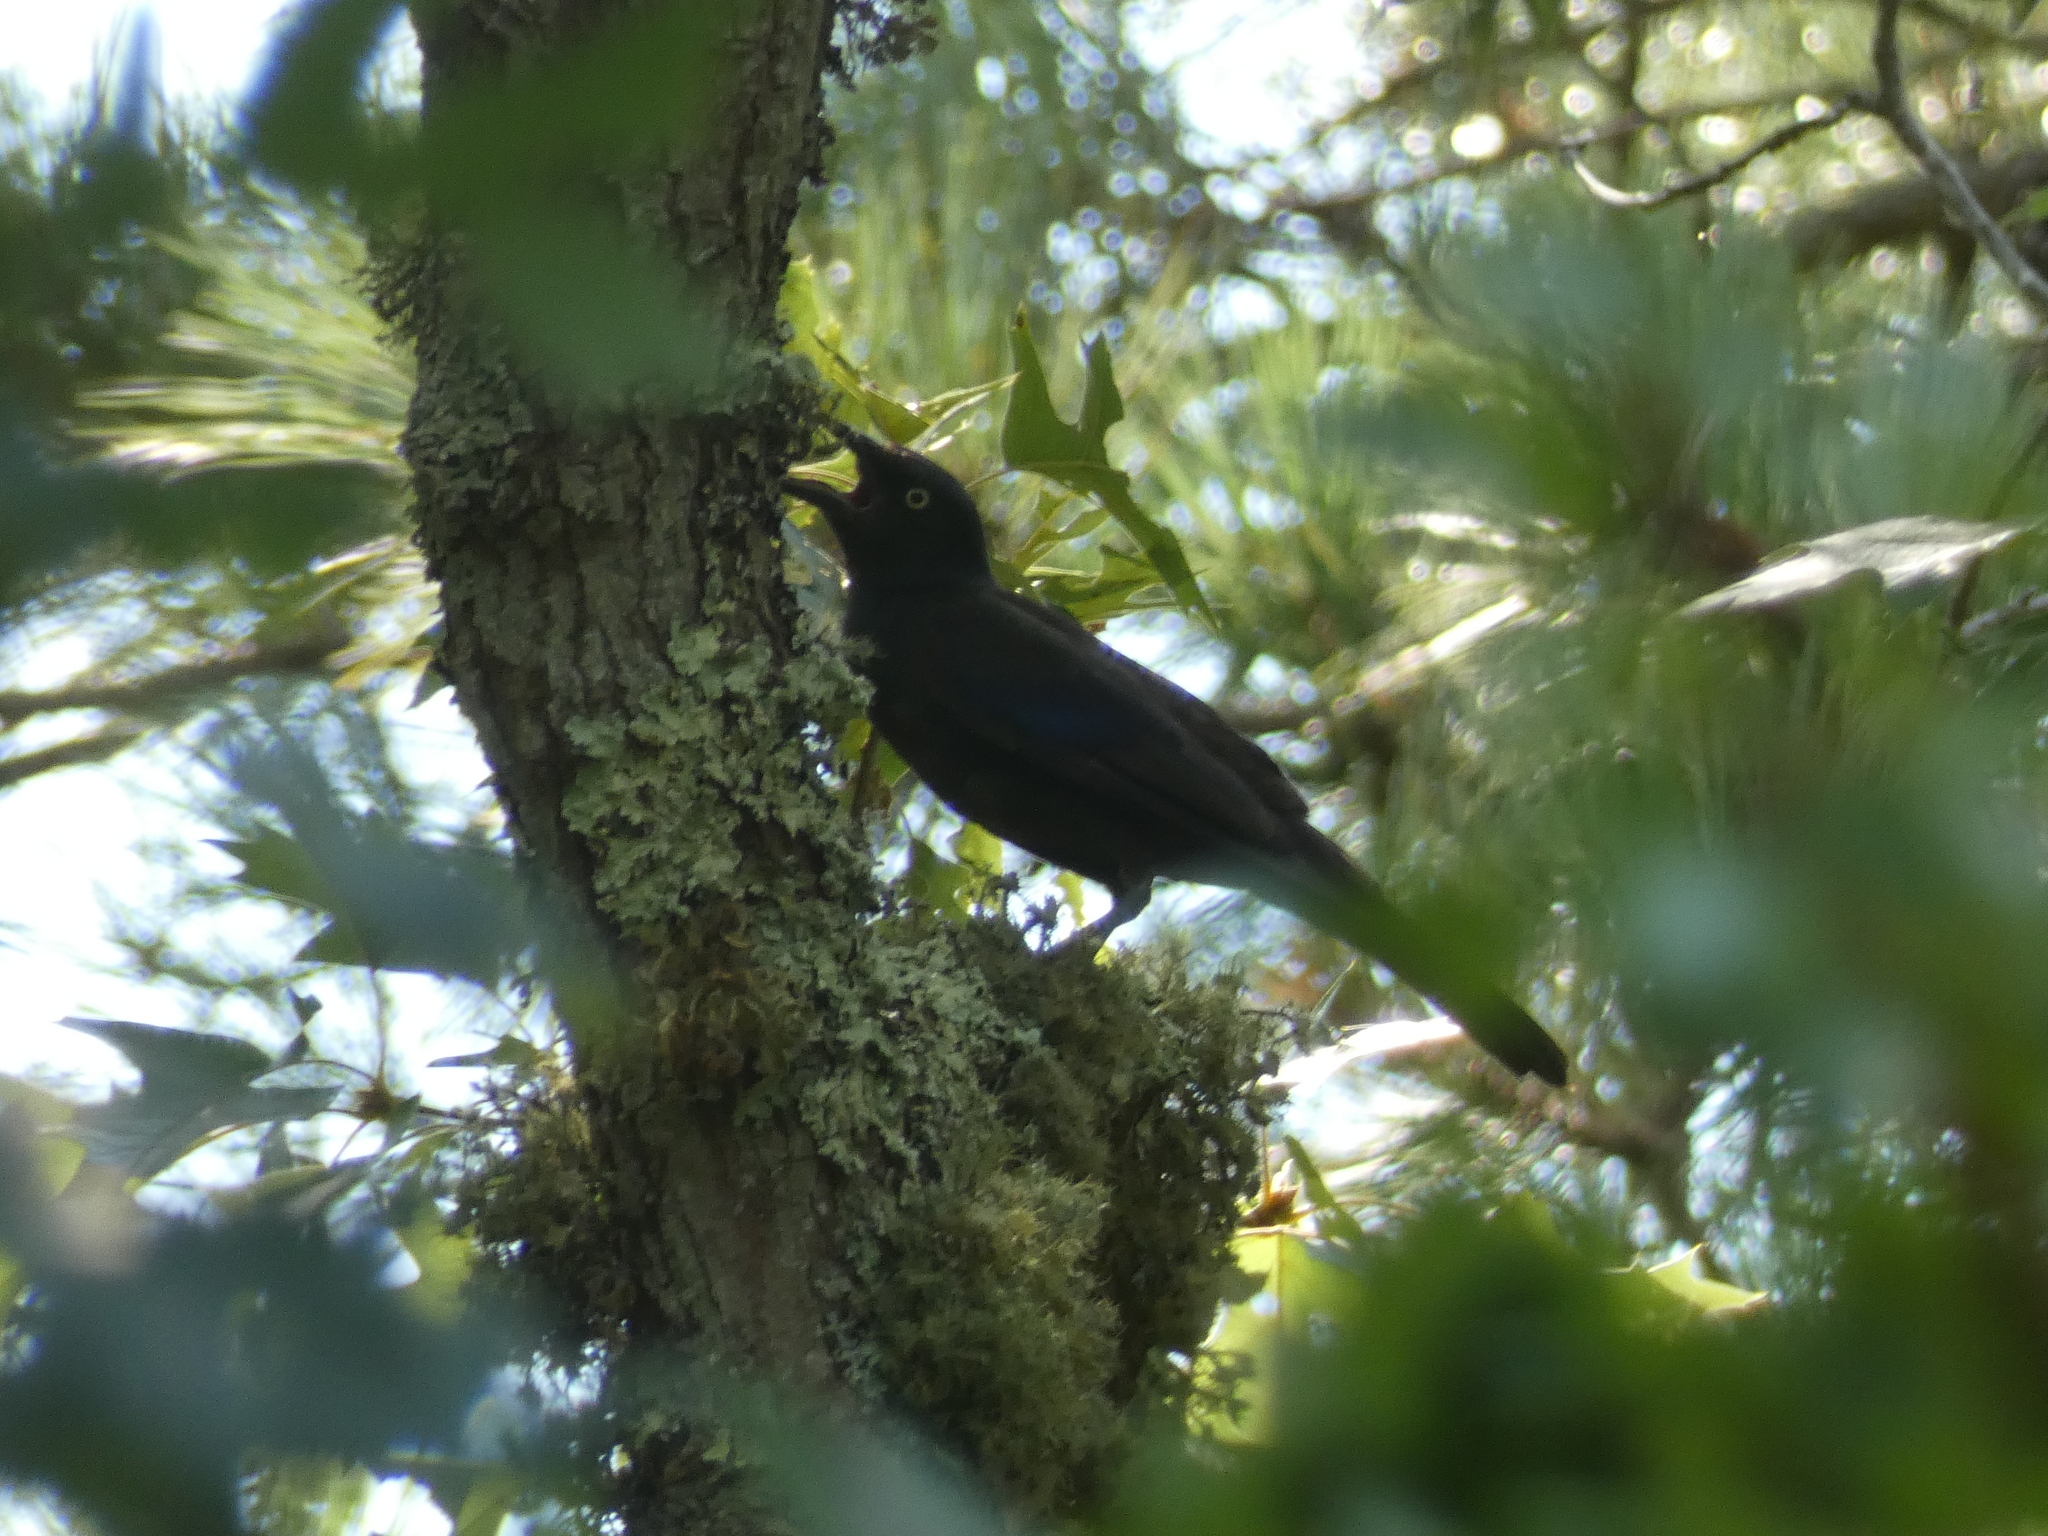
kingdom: Animalia
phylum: Chordata
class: Aves
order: Passeriformes
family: Icteridae
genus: Quiscalus
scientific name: Quiscalus quiscula
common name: Common grackle
